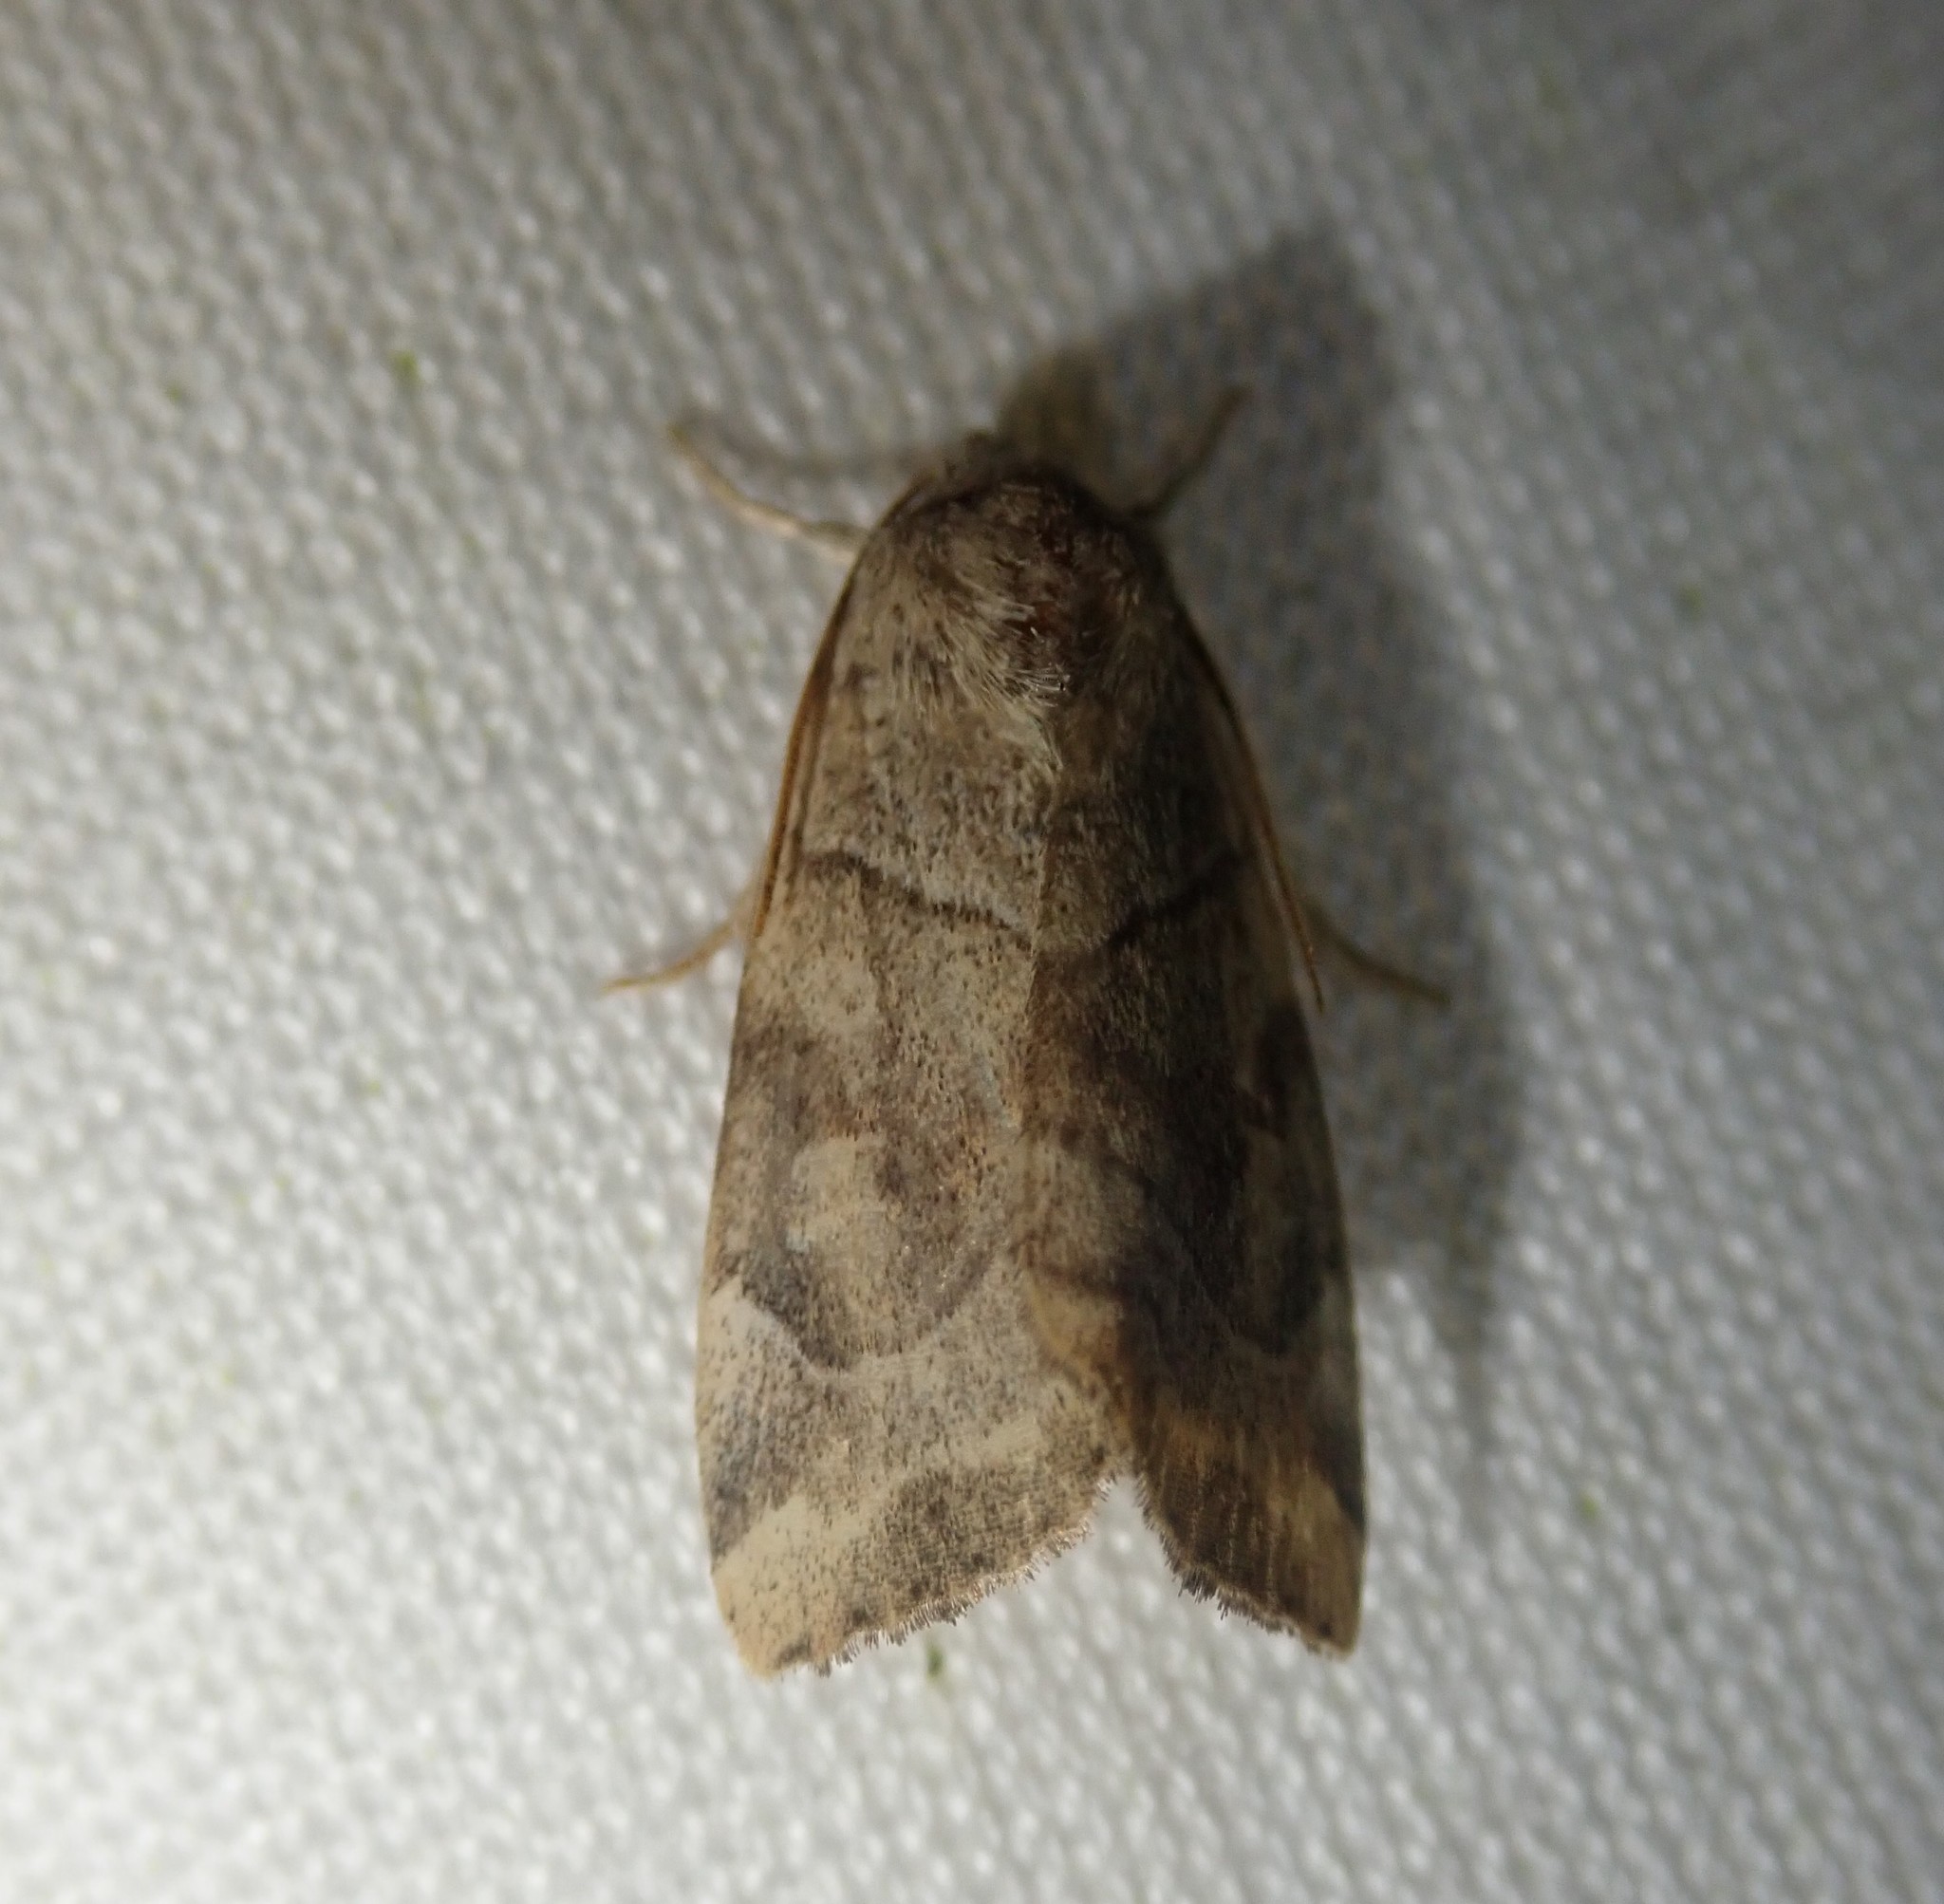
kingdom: Animalia
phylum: Arthropoda
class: Insecta
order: Lepidoptera
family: Noctuidae
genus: Cosmia
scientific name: Cosmia trapezina
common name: Dun-bar
